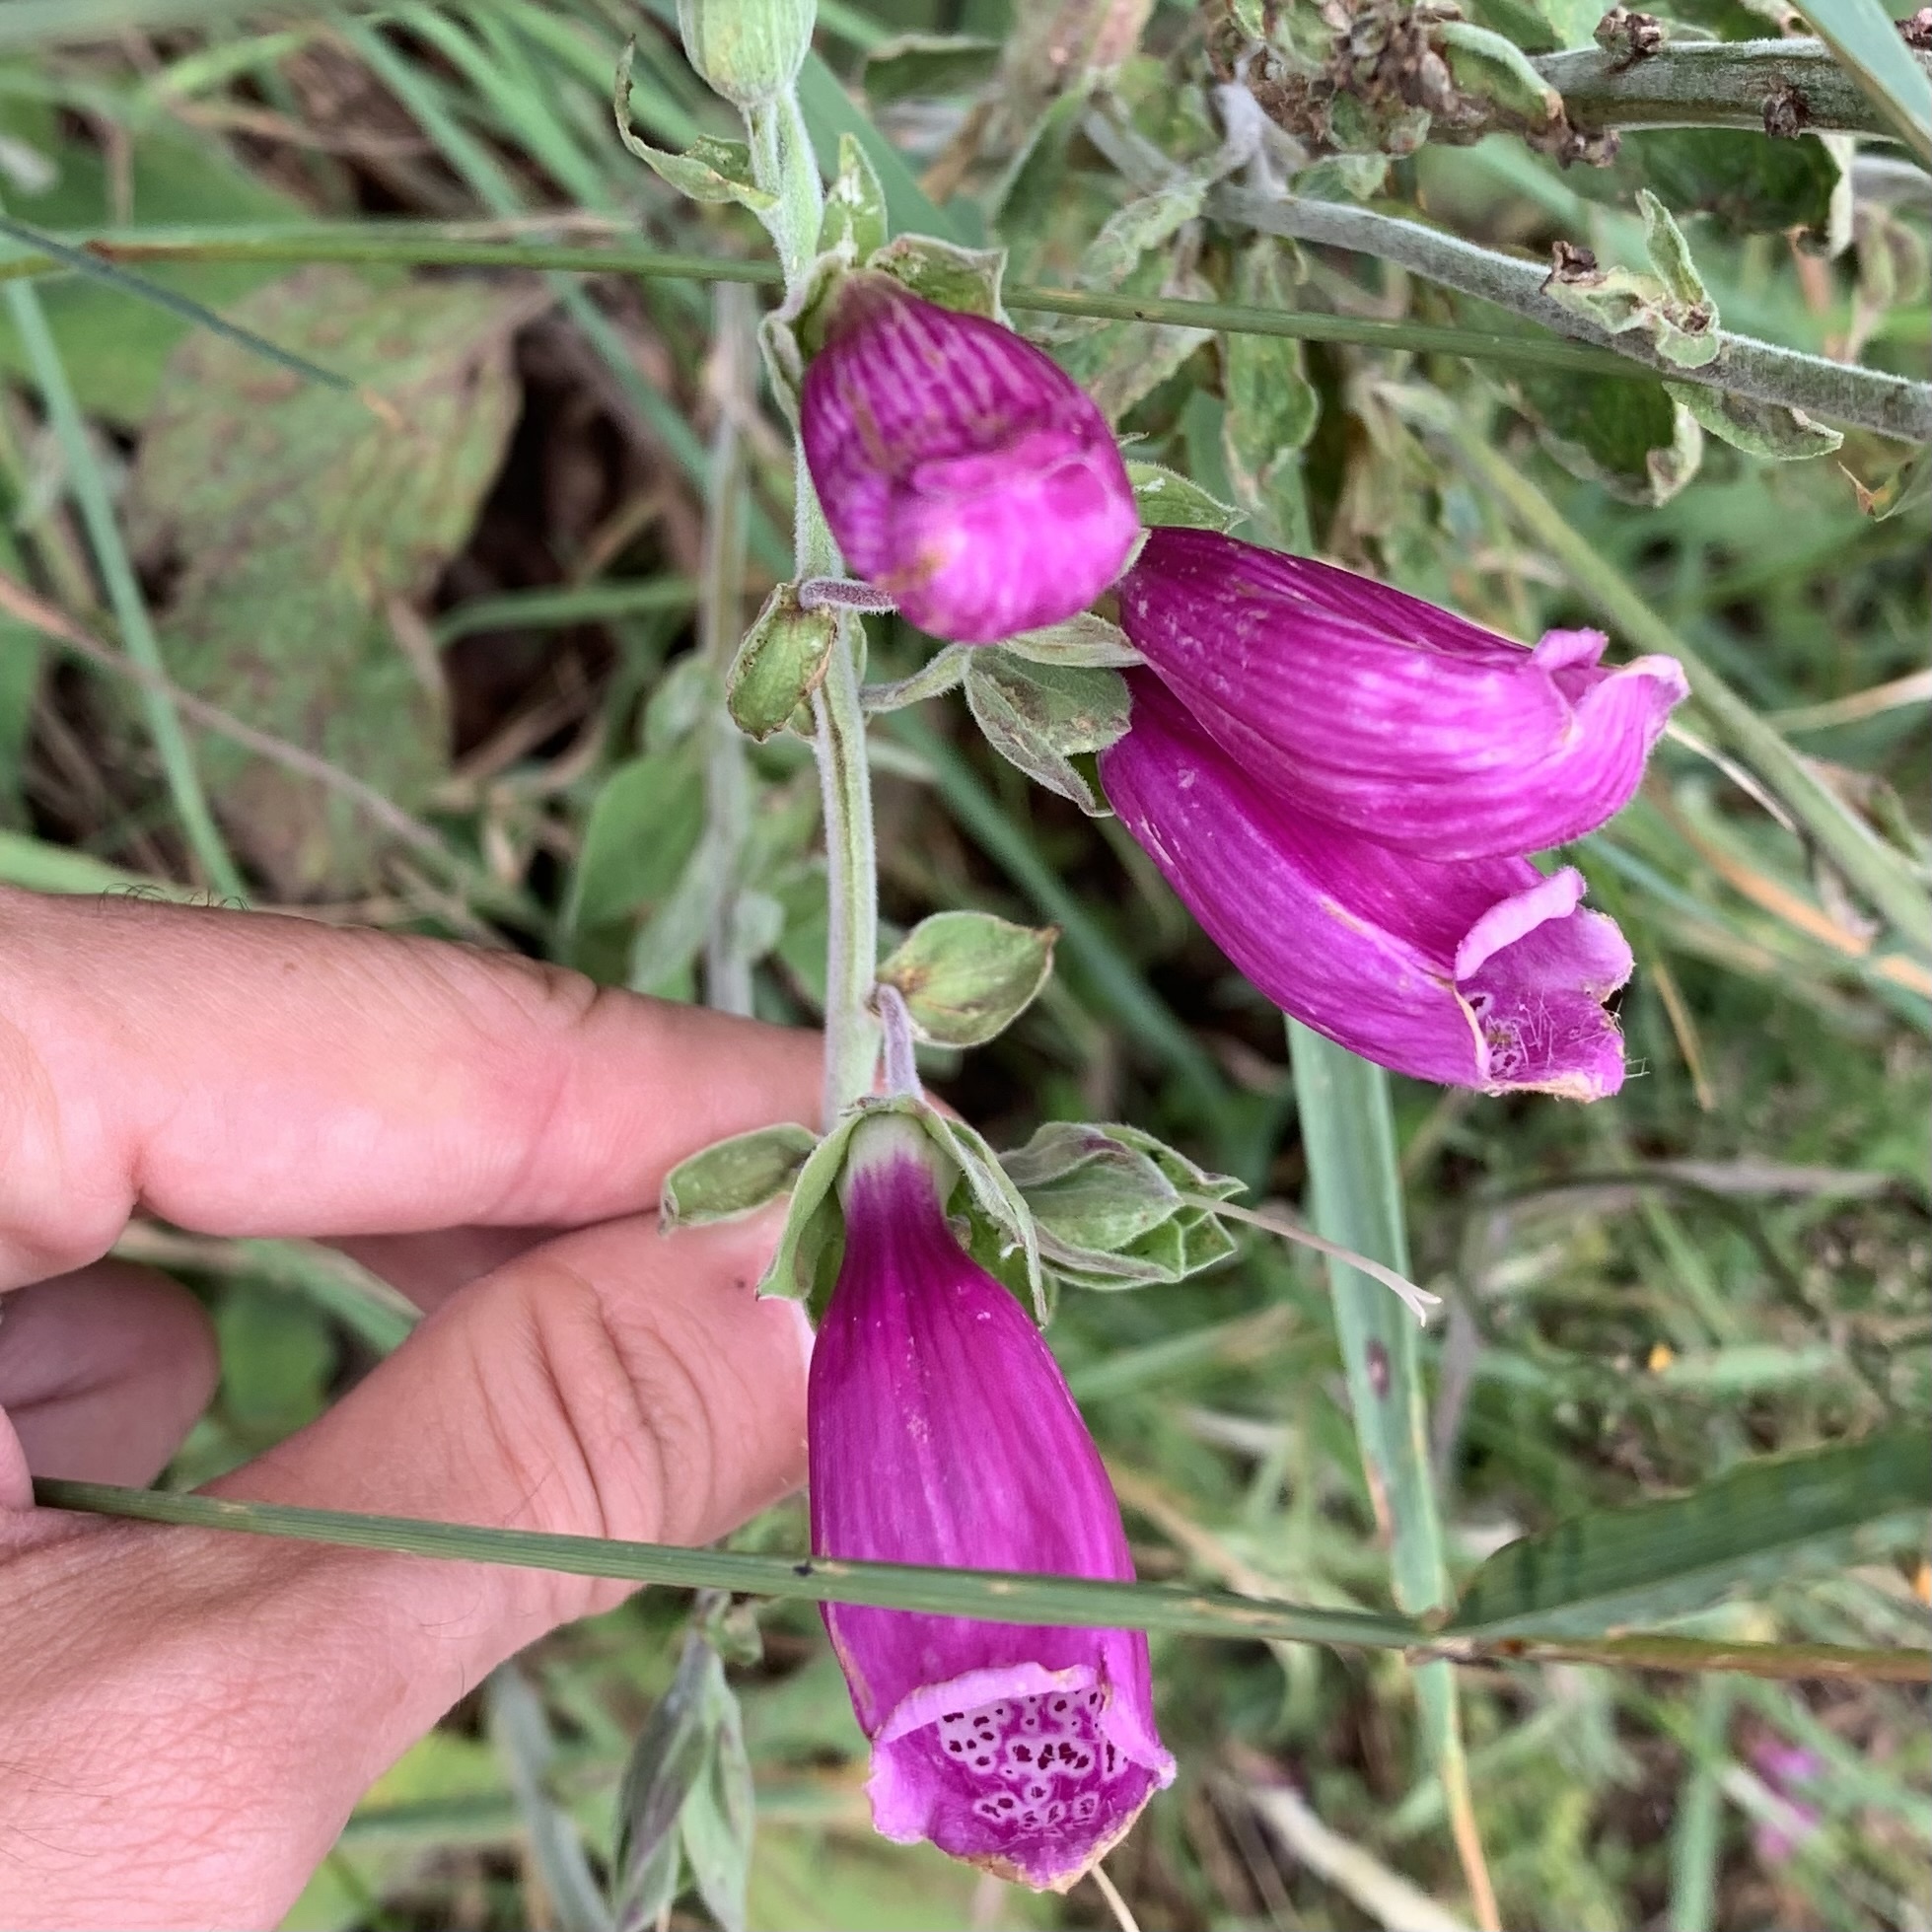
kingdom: Plantae
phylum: Tracheophyta
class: Magnoliopsida
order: Lamiales
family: Plantaginaceae
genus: Digitalis
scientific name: Digitalis purpurea
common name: Foxglove
